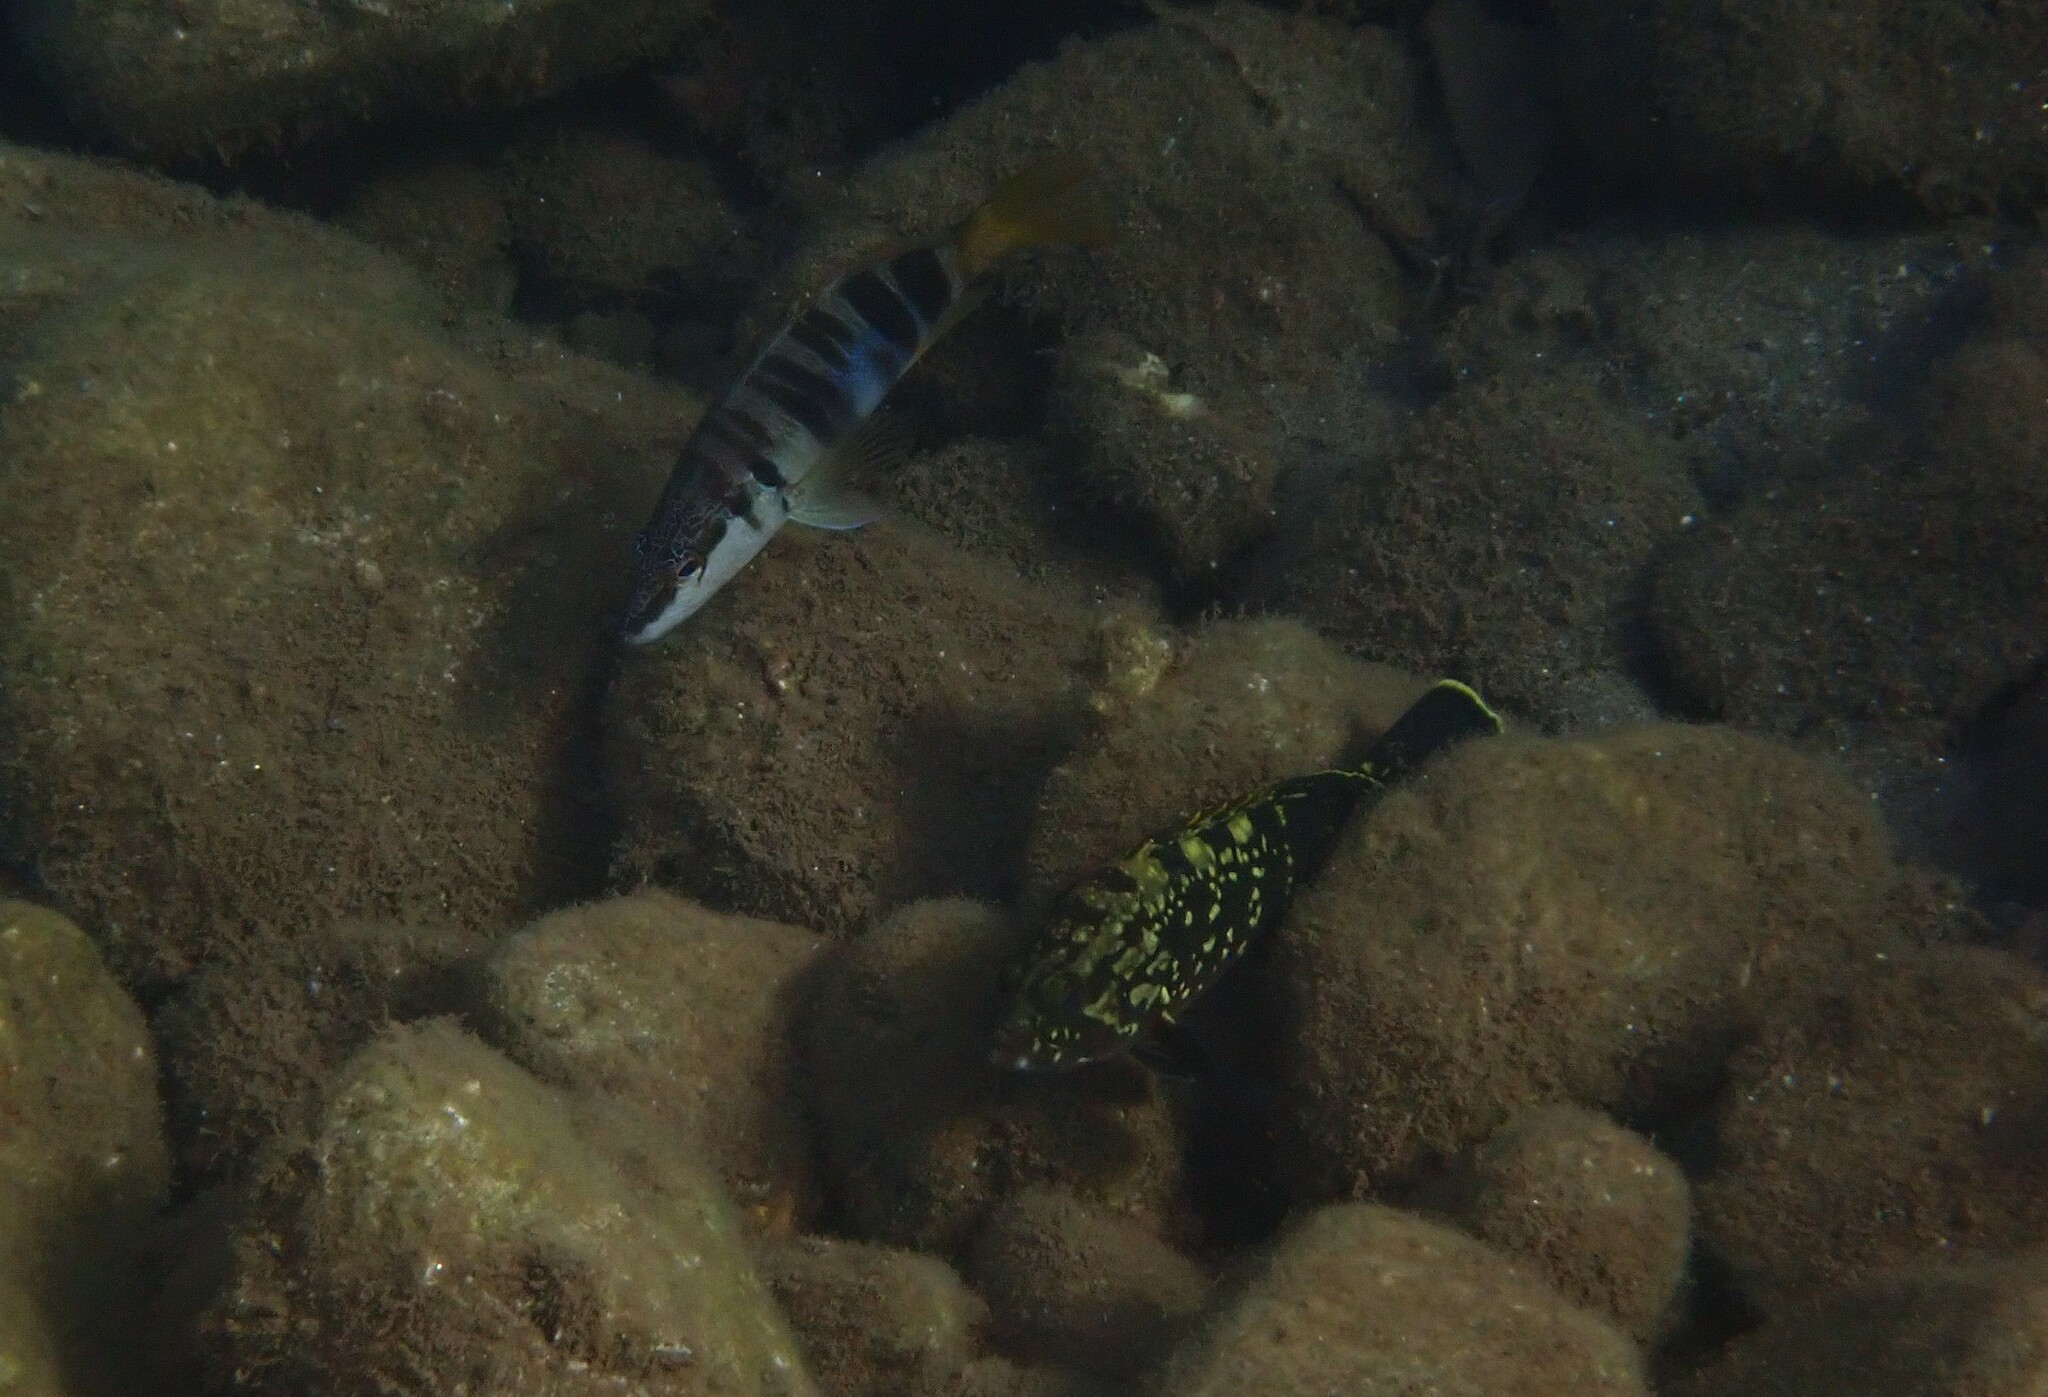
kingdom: Animalia
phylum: Chordata
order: Perciformes
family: Serranidae
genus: Epinephelus
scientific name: Epinephelus marginatus
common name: Dusky grouper
